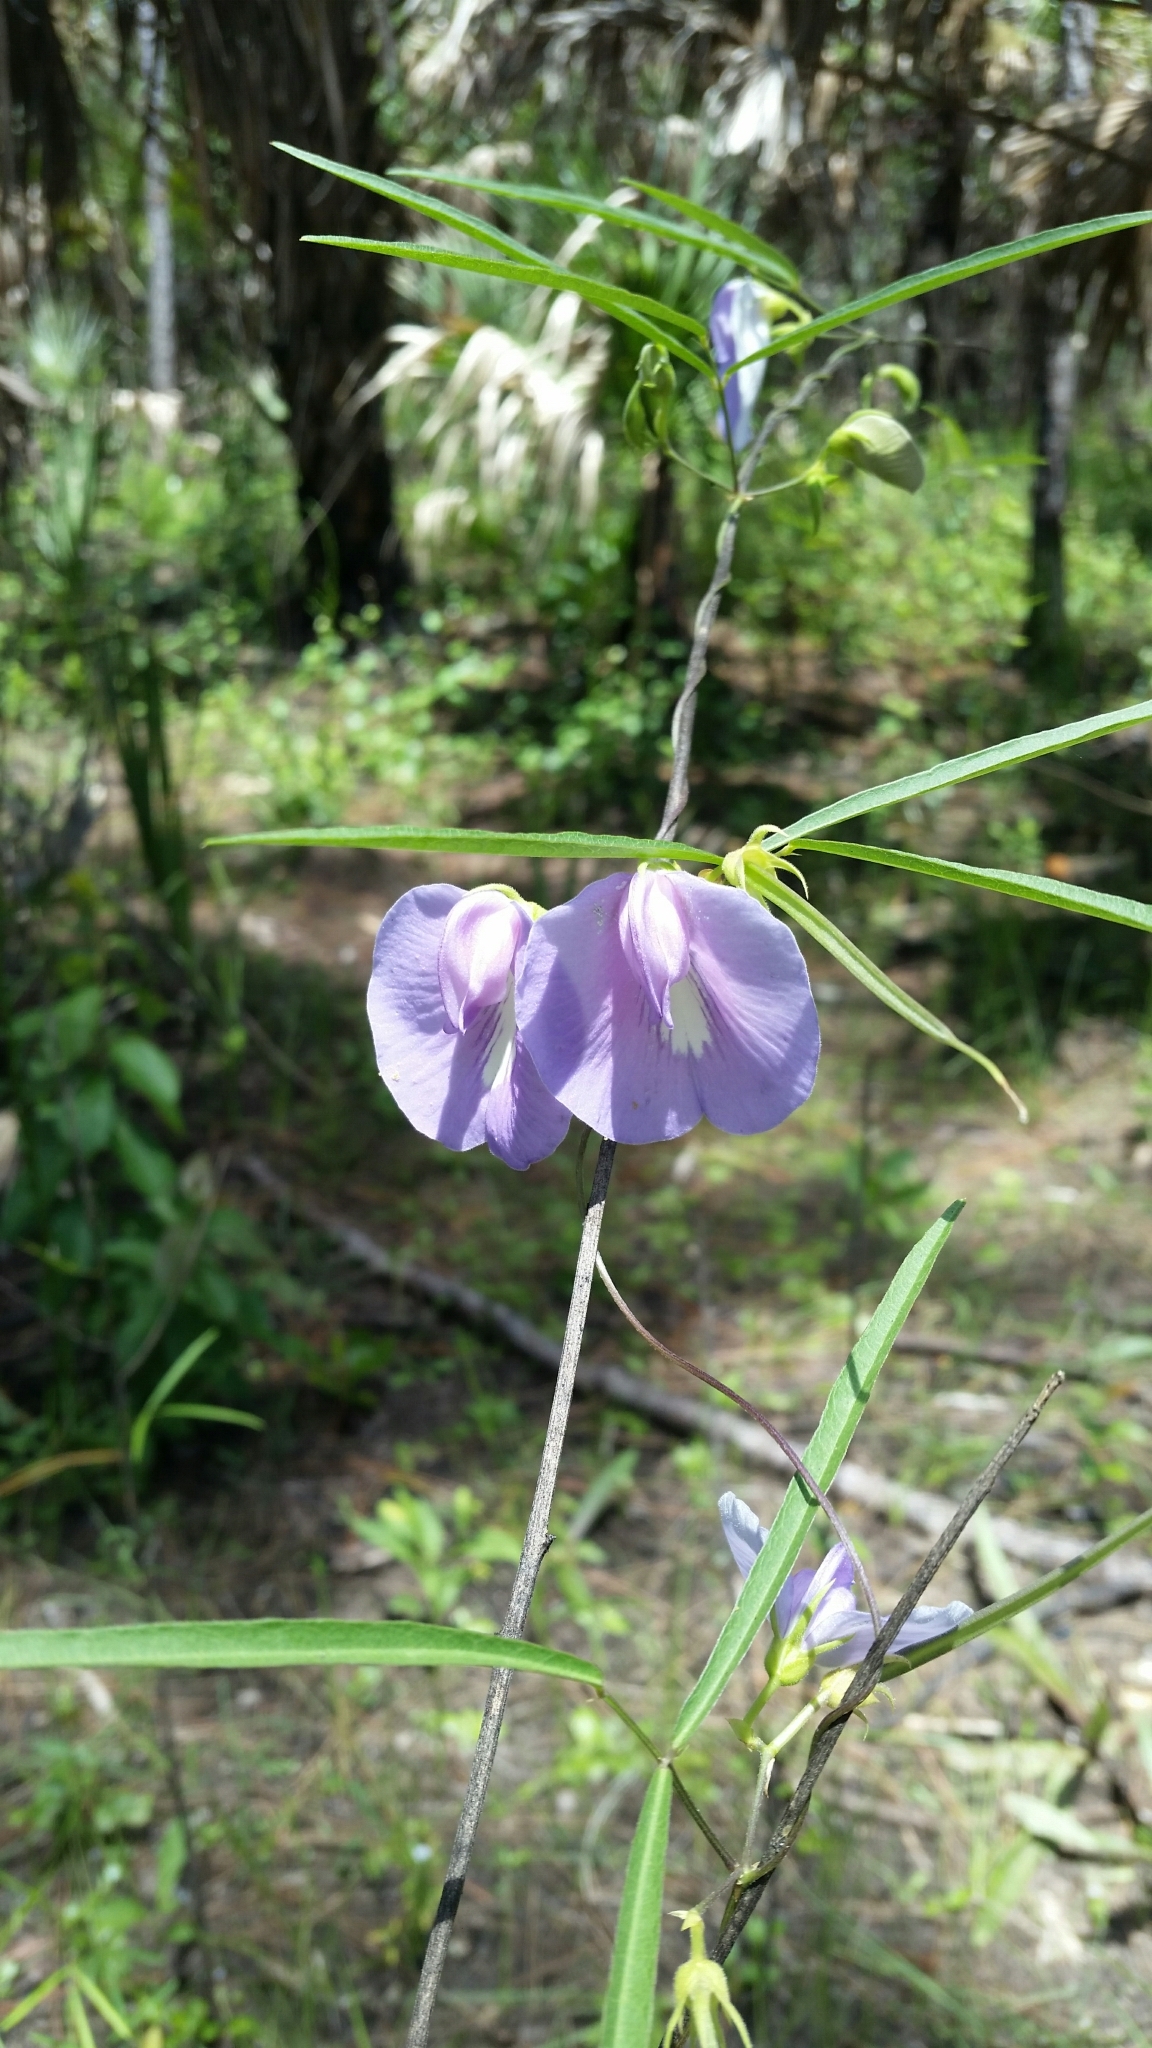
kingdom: Plantae
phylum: Tracheophyta
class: Magnoliopsida
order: Fabales
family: Fabaceae
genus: Centrosema
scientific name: Centrosema virginianum
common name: Butterfly-pea
